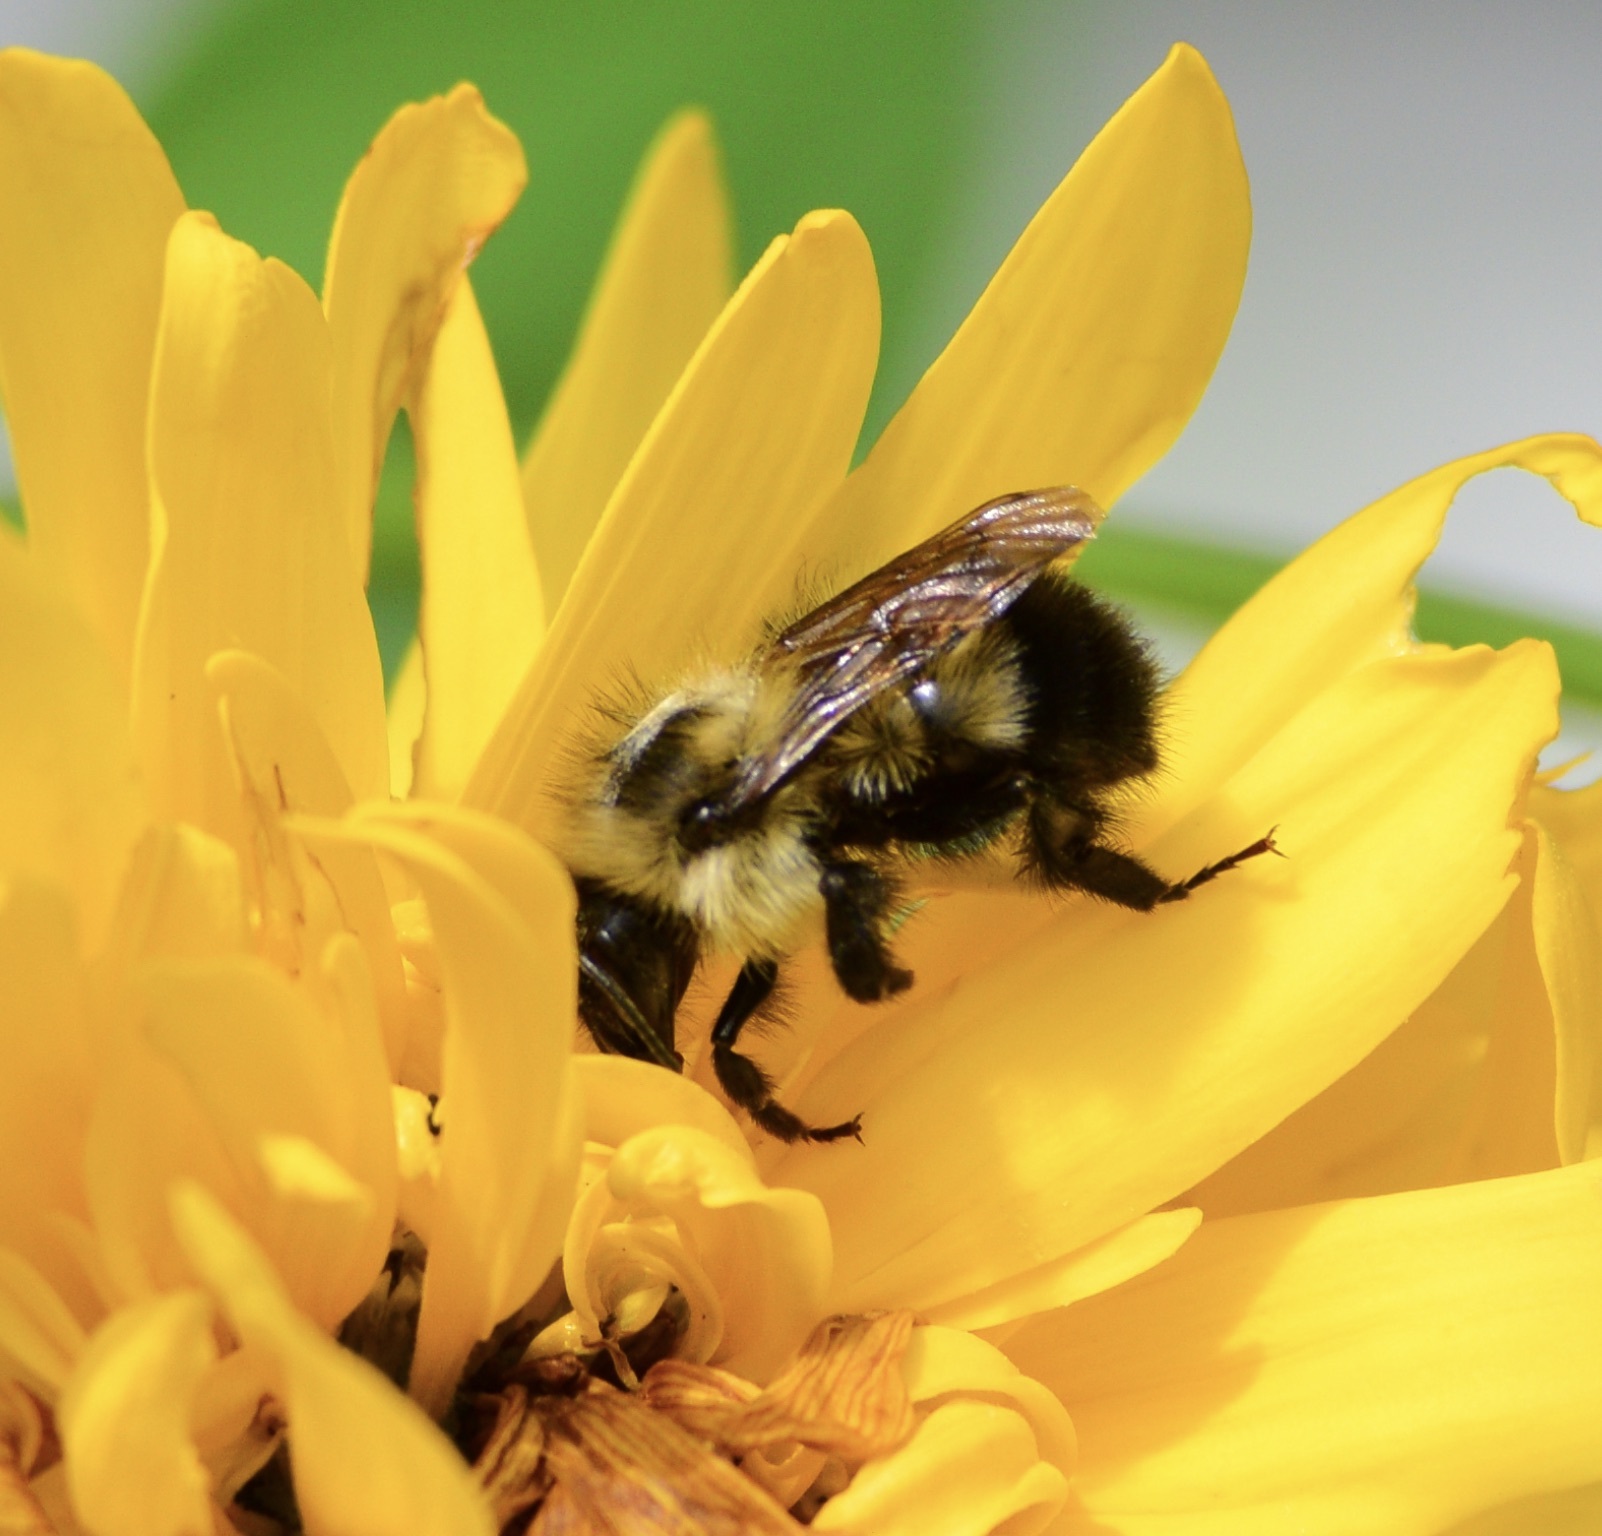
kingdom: Animalia
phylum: Arthropoda
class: Insecta
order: Hymenoptera
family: Apidae
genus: Pyrobombus
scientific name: Pyrobombus
